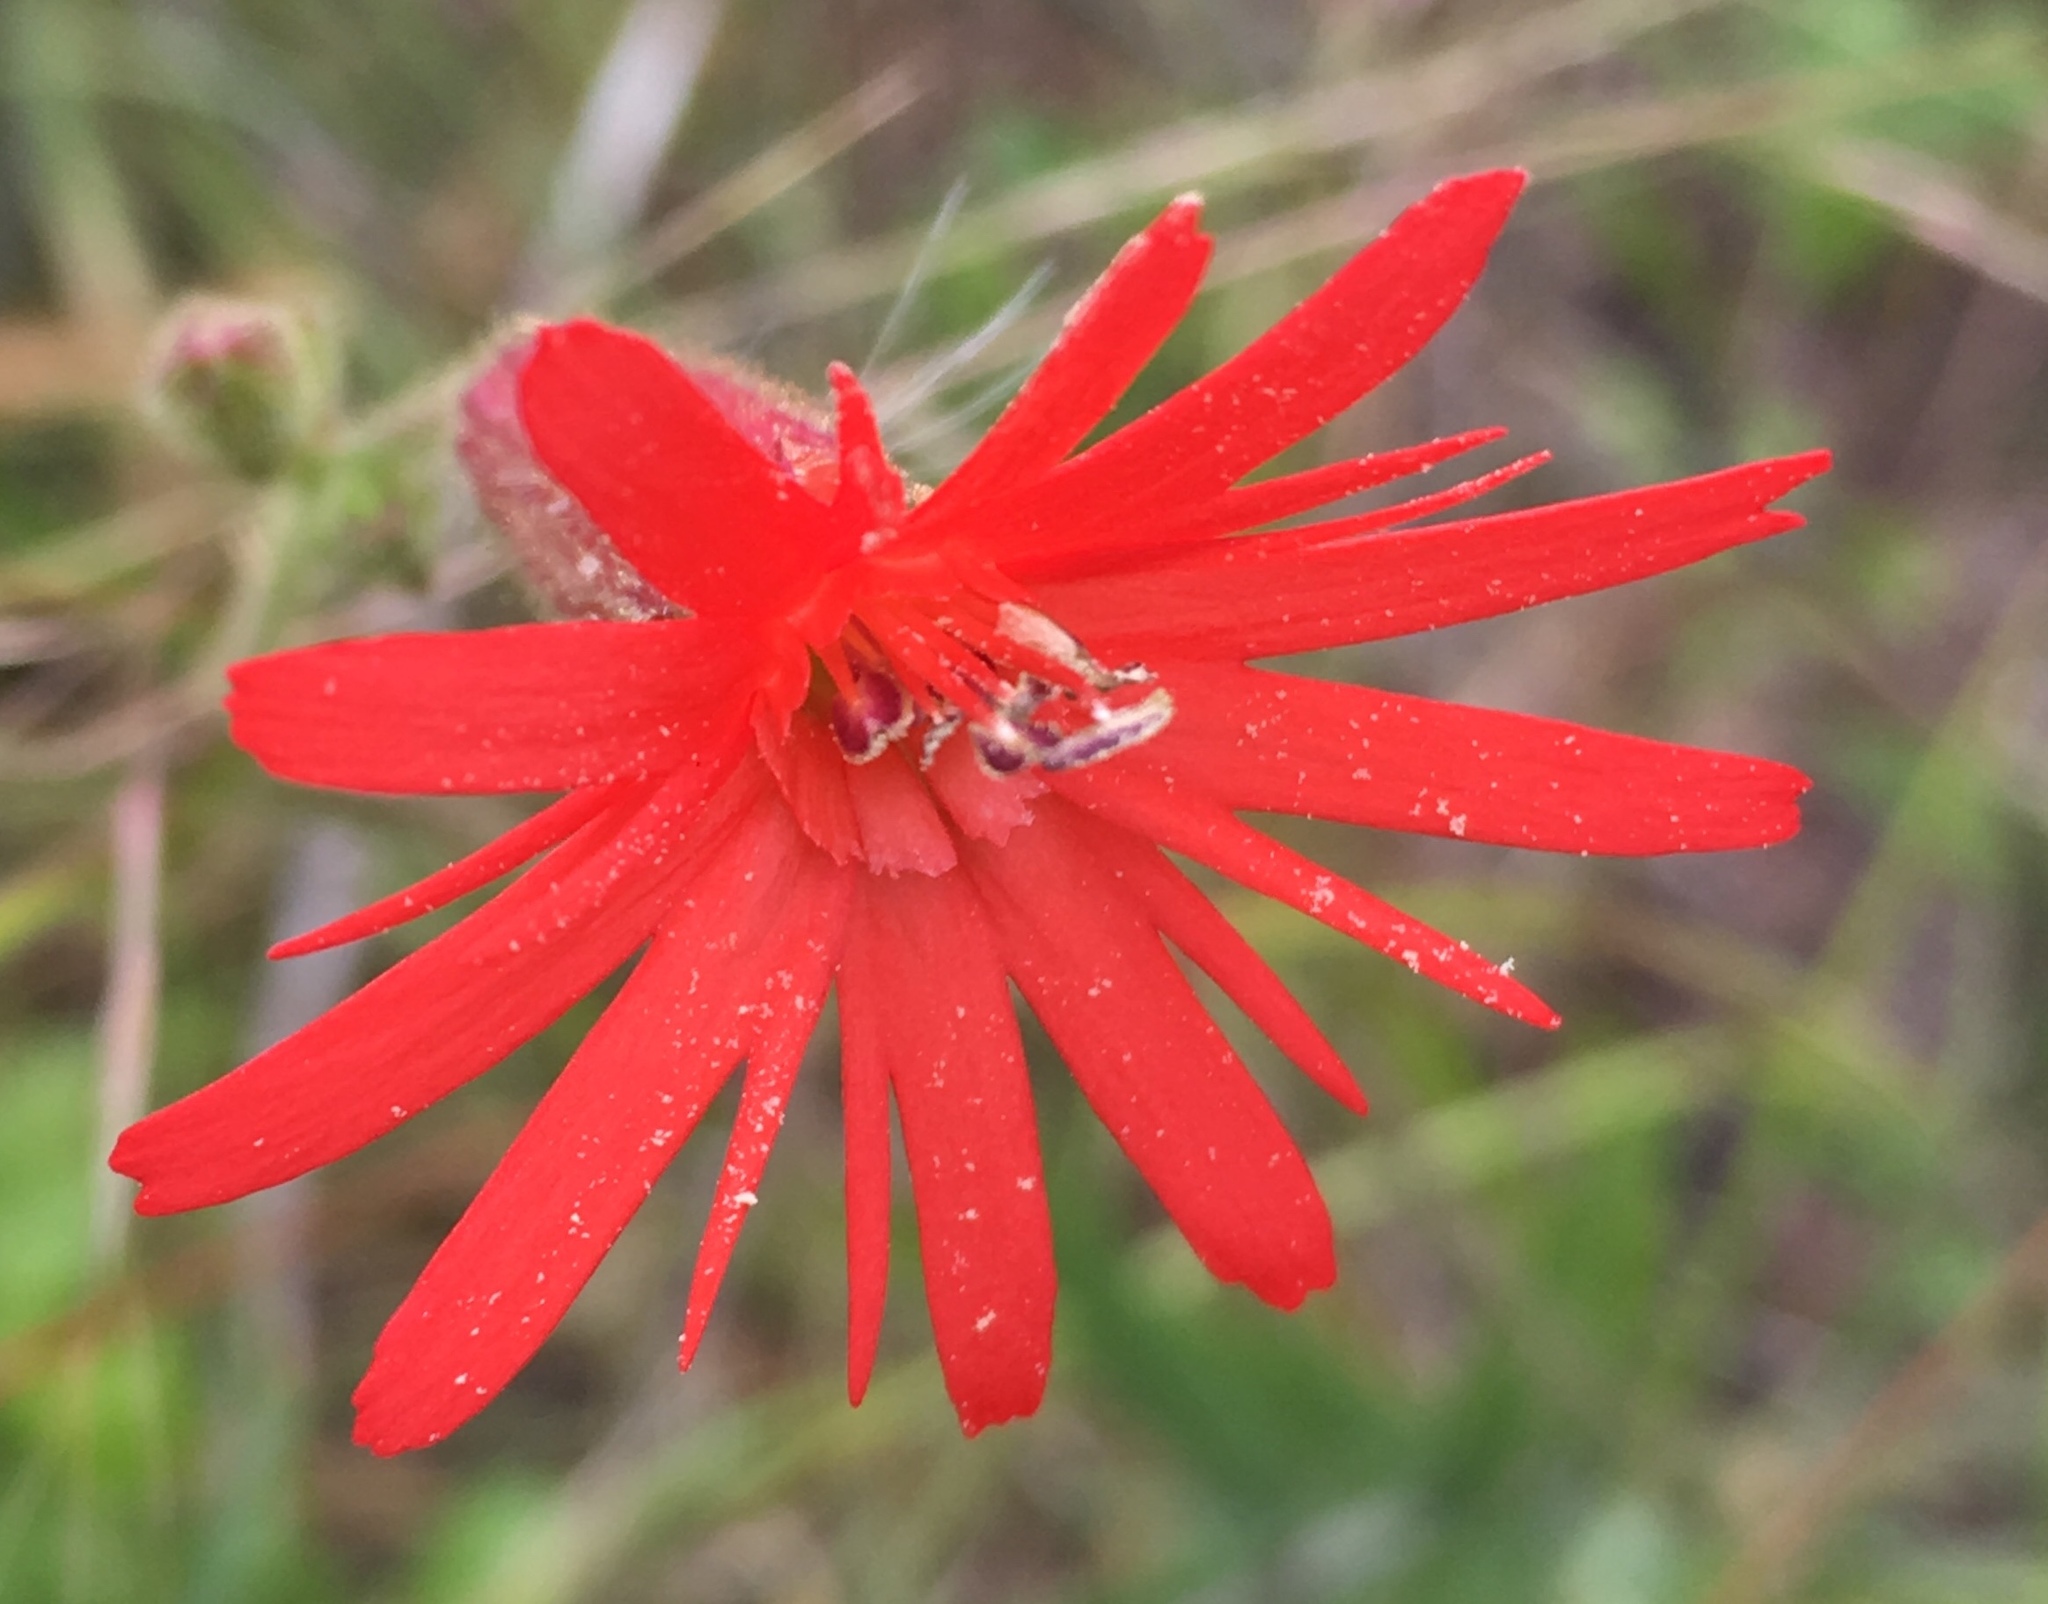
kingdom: Plantae
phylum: Tracheophyta
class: Magnoliopsida
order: Caryophyllales
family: Caryophyllaceae
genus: Silene
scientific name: Silene laciniata
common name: Indian-pink
